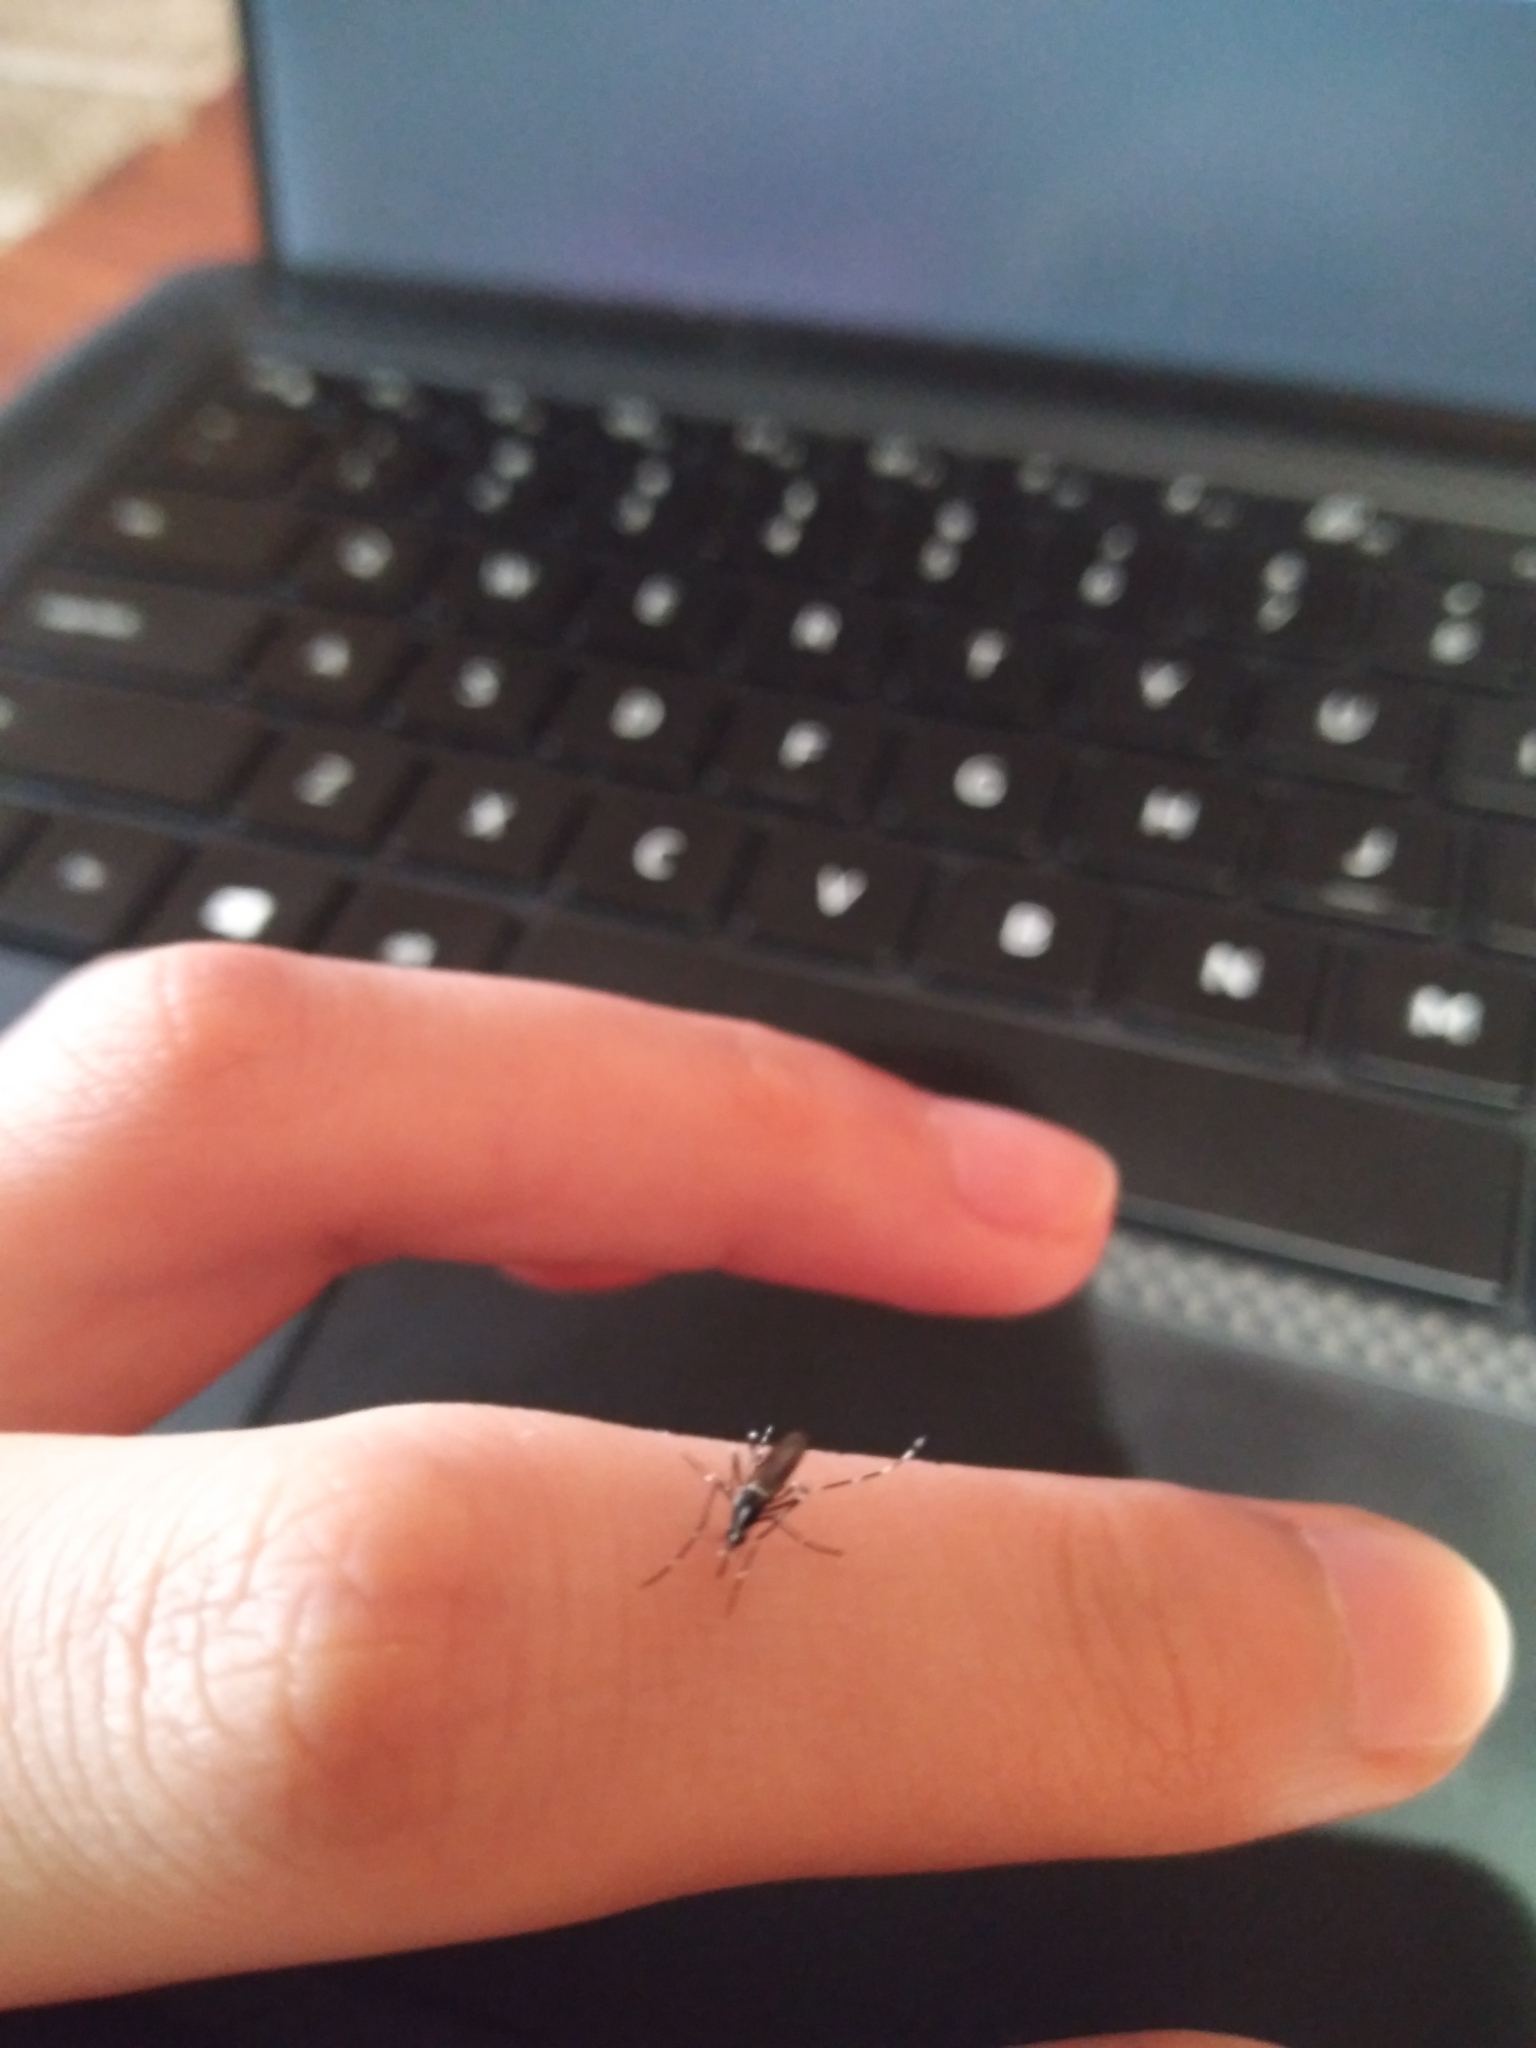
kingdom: Animalia
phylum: Arthropoda
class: Insecta
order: Diptera
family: Culicidae
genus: Aedes
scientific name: Aedes albopictus
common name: Tiger mosquito
